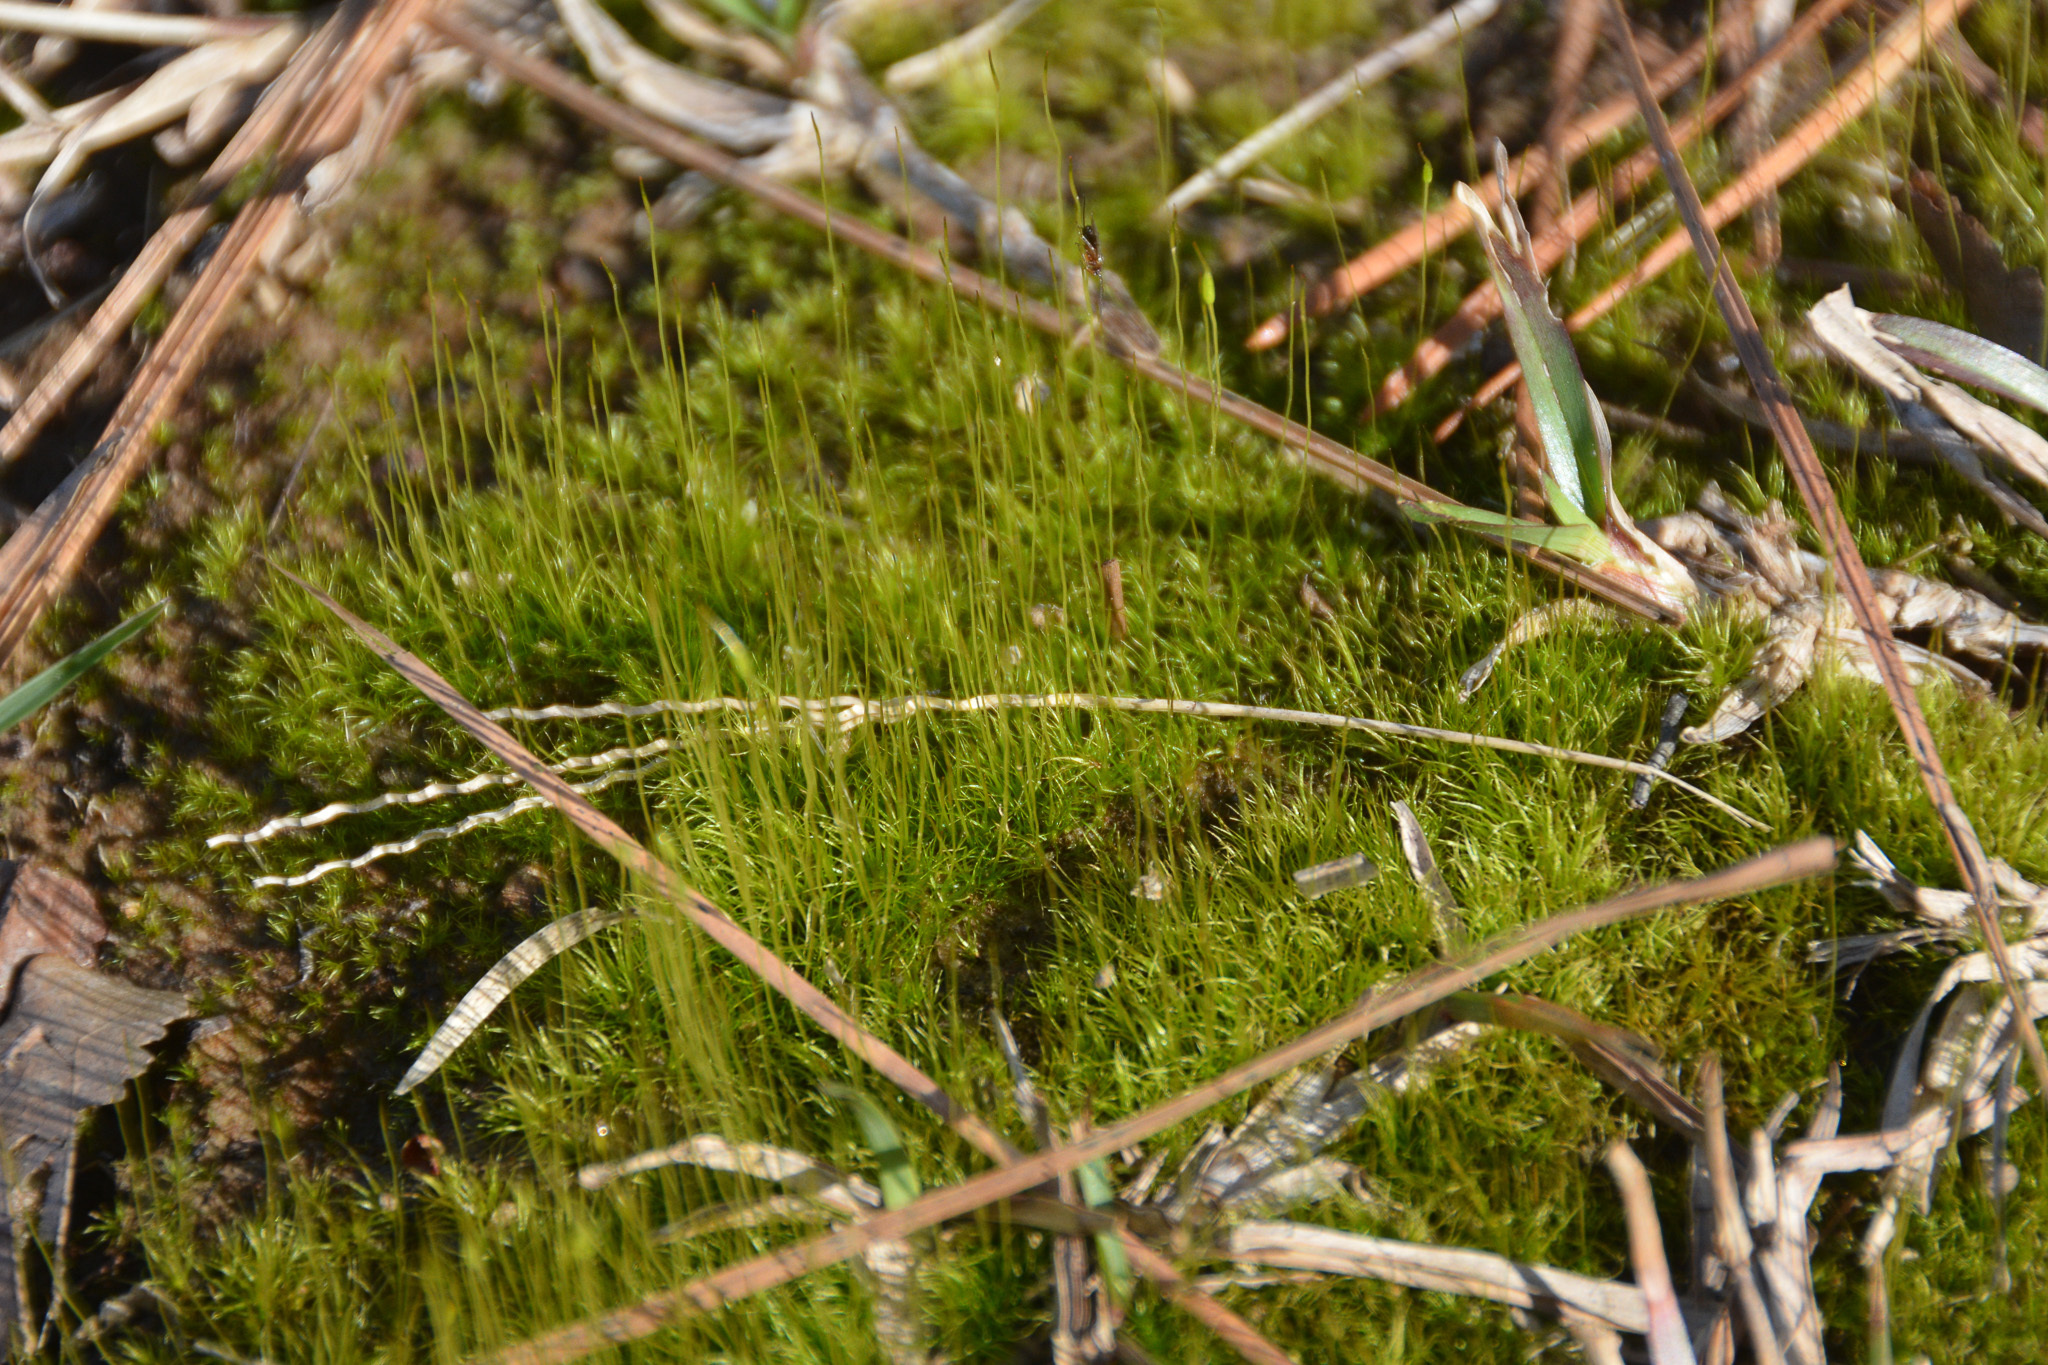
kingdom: Plantae
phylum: Bryophyta
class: Bryopsida
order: Dicranales
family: Ditrichaceae
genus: Ditrichum
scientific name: Ditrichum pallidum
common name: Pale cow-hair moss
